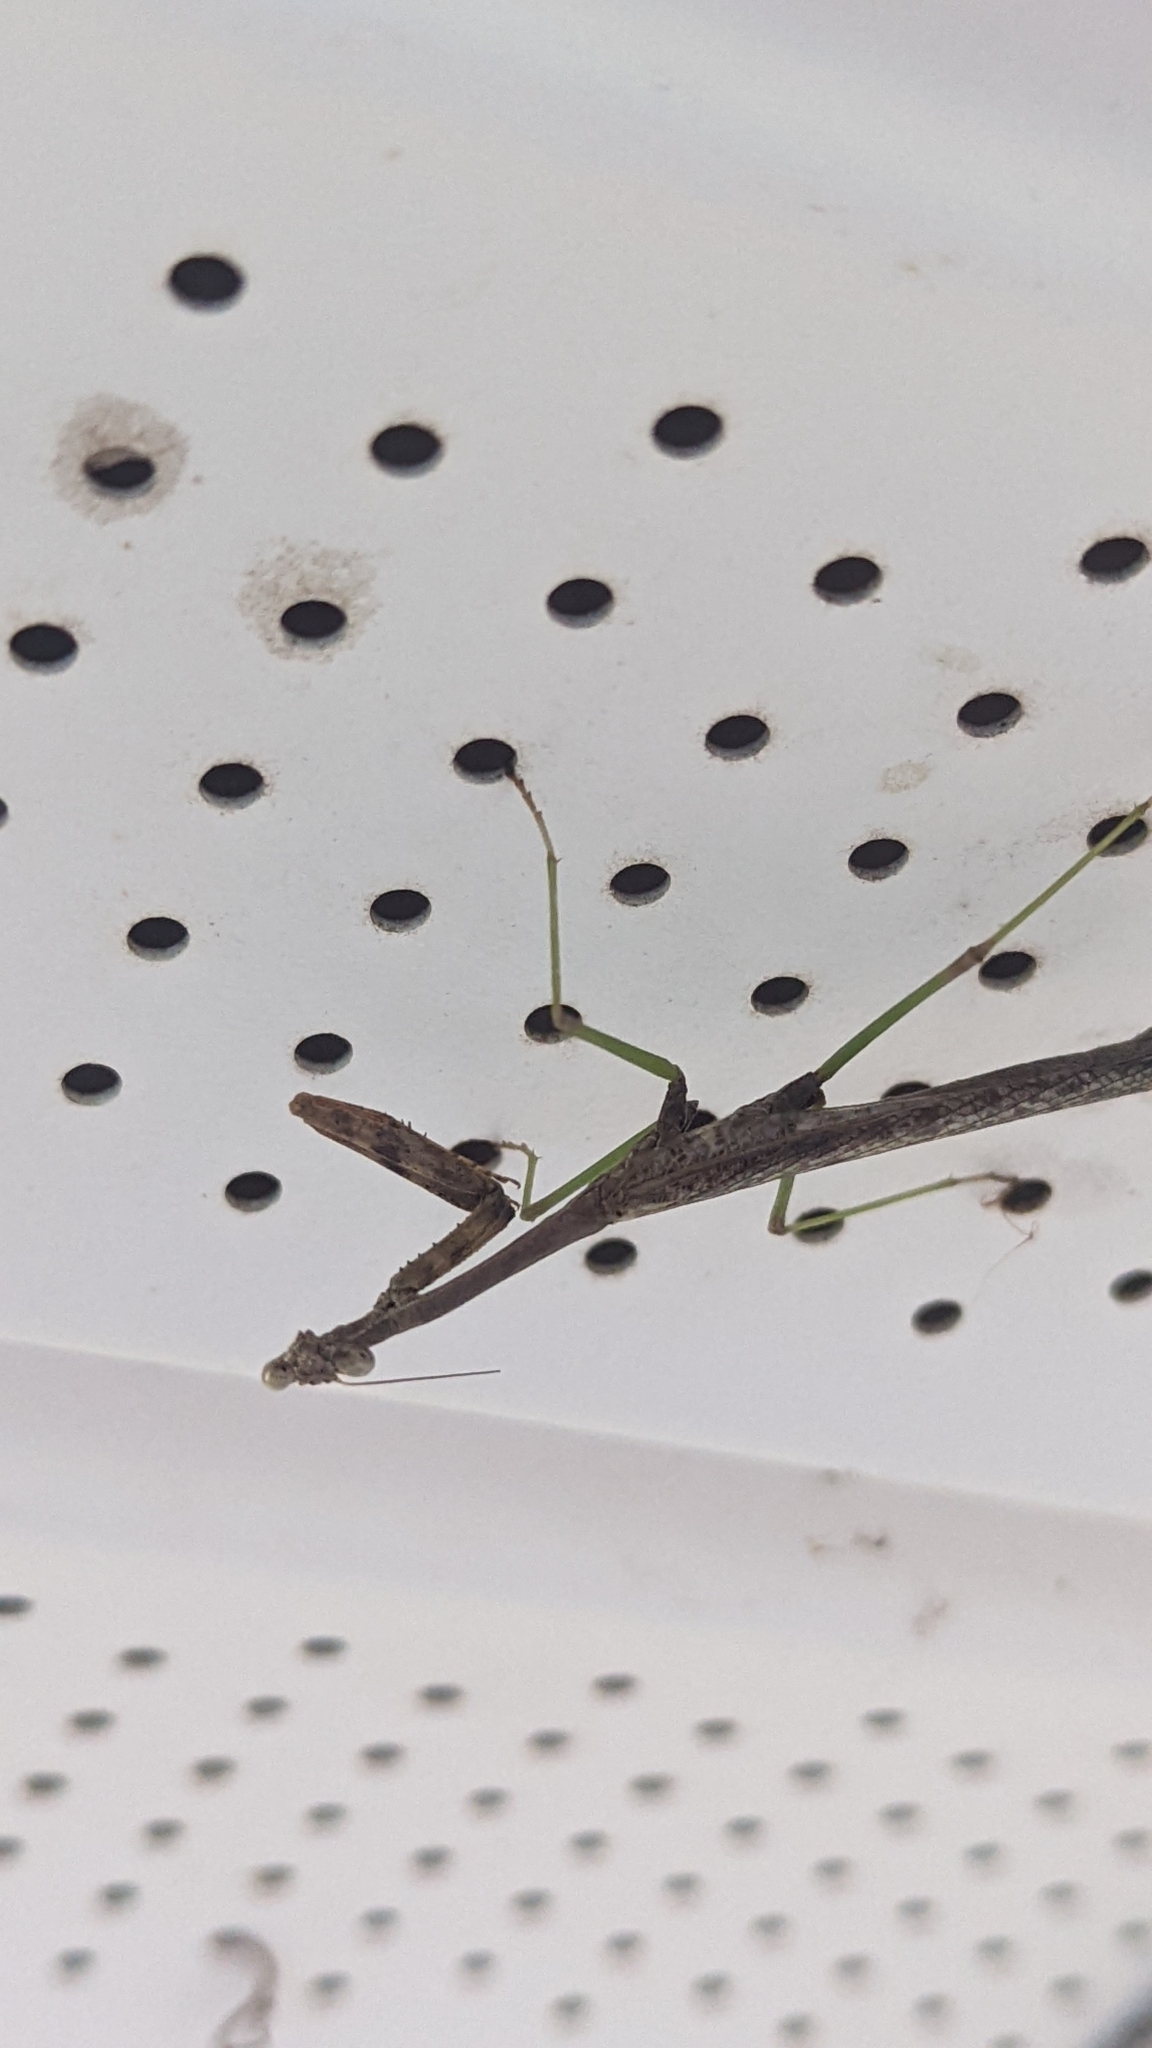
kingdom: Animalia
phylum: Arthropoda
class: Insecta
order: Mantodea
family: Mantidae
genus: Stagmomantis
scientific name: Stagmomantis carolina
